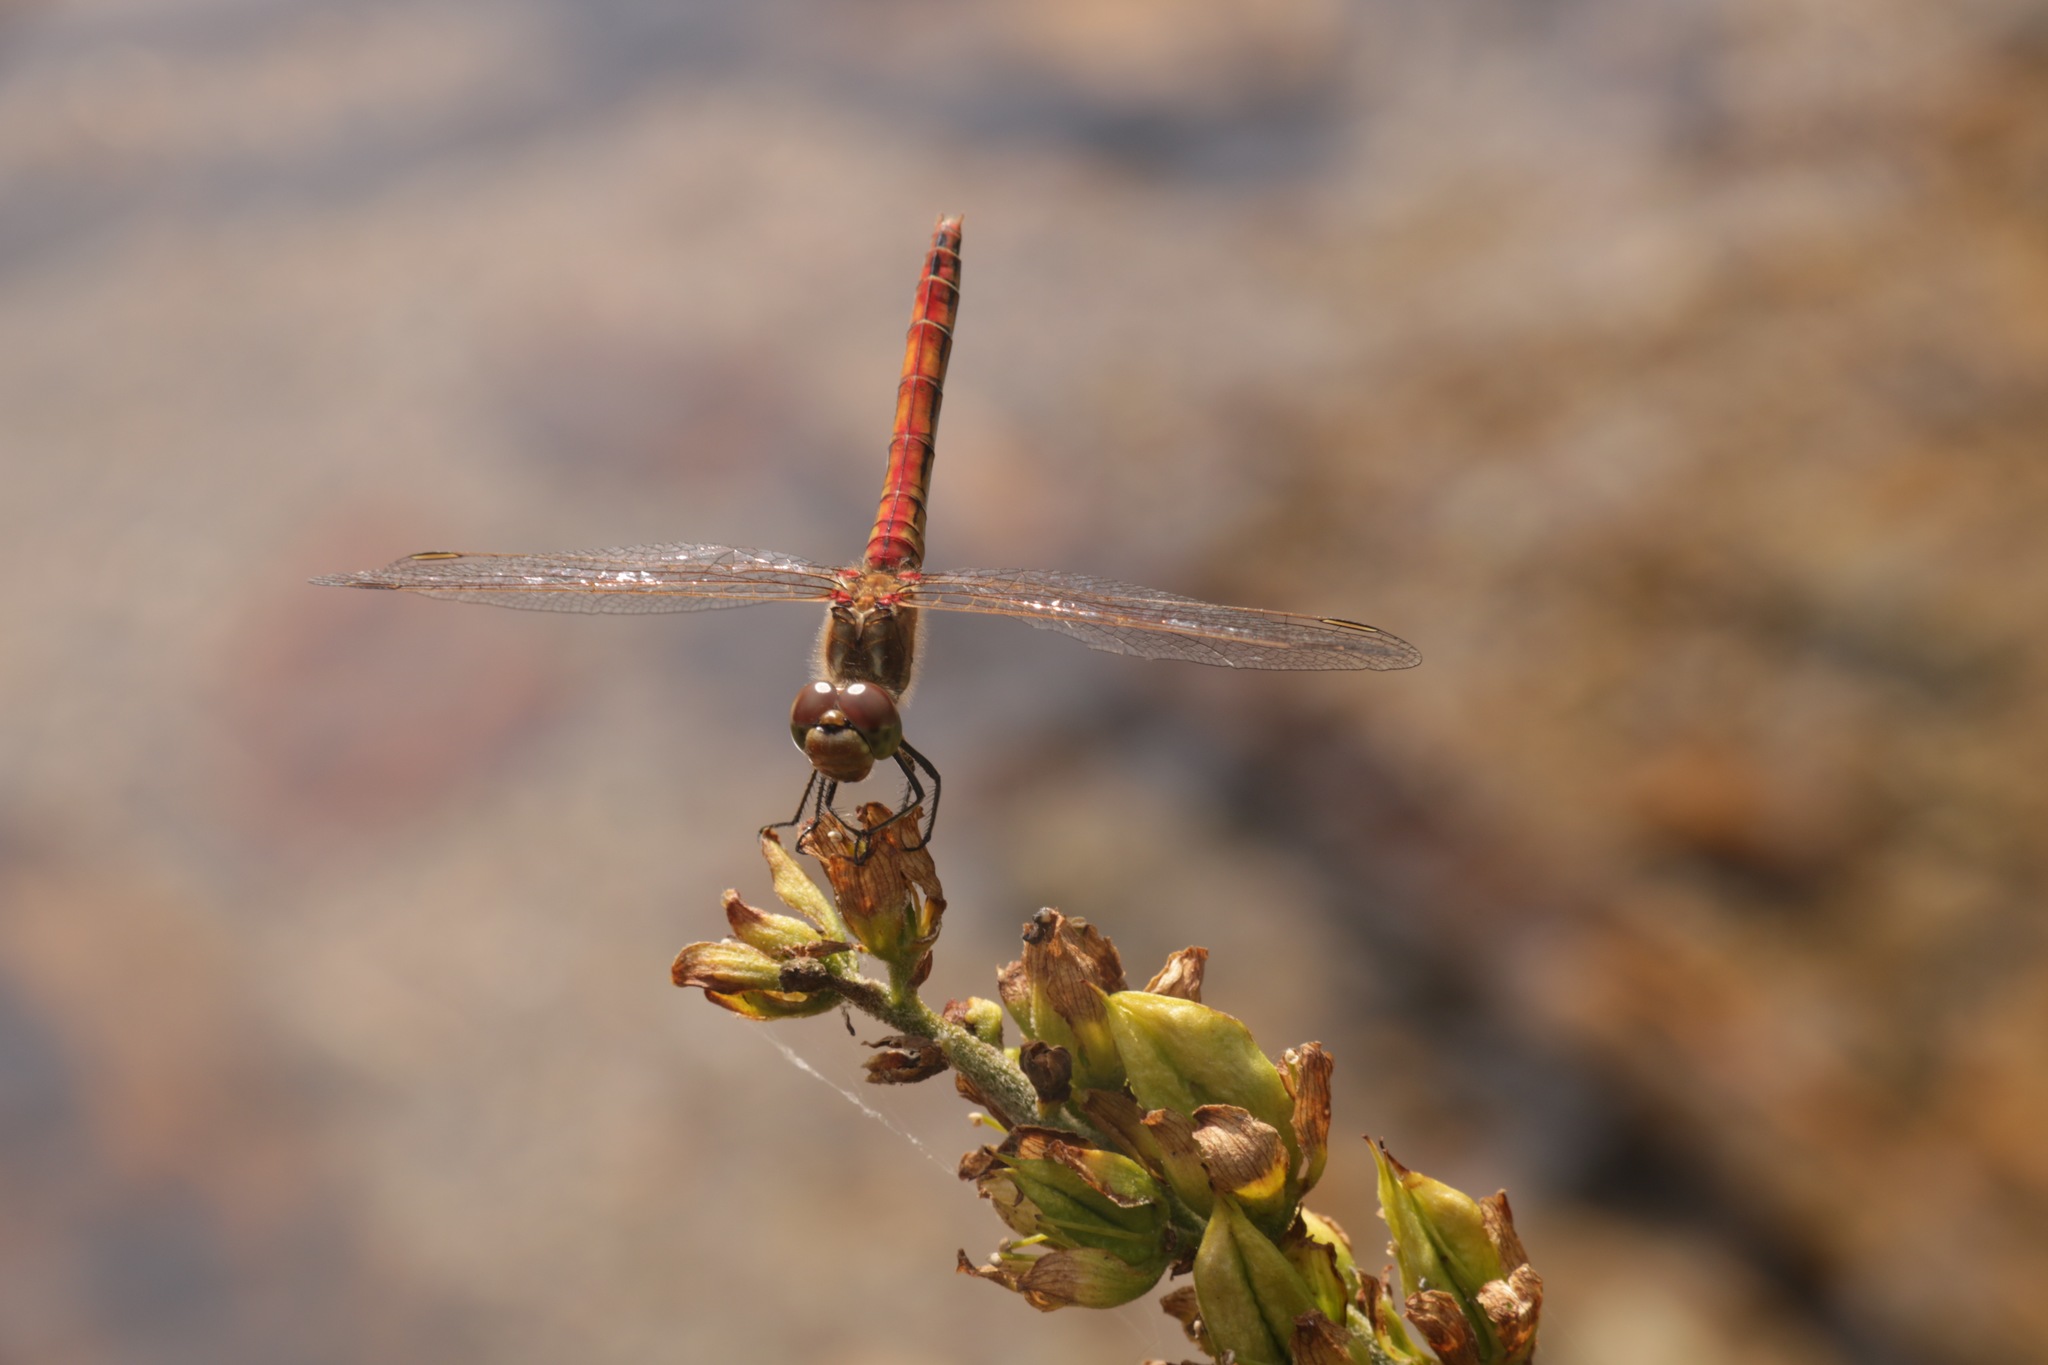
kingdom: Animalia
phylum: Arthropoda
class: Insecta
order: Odonata
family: Libellulidae
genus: Sympetrum
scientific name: Sympetrum vulgatum
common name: Vagrant darter
